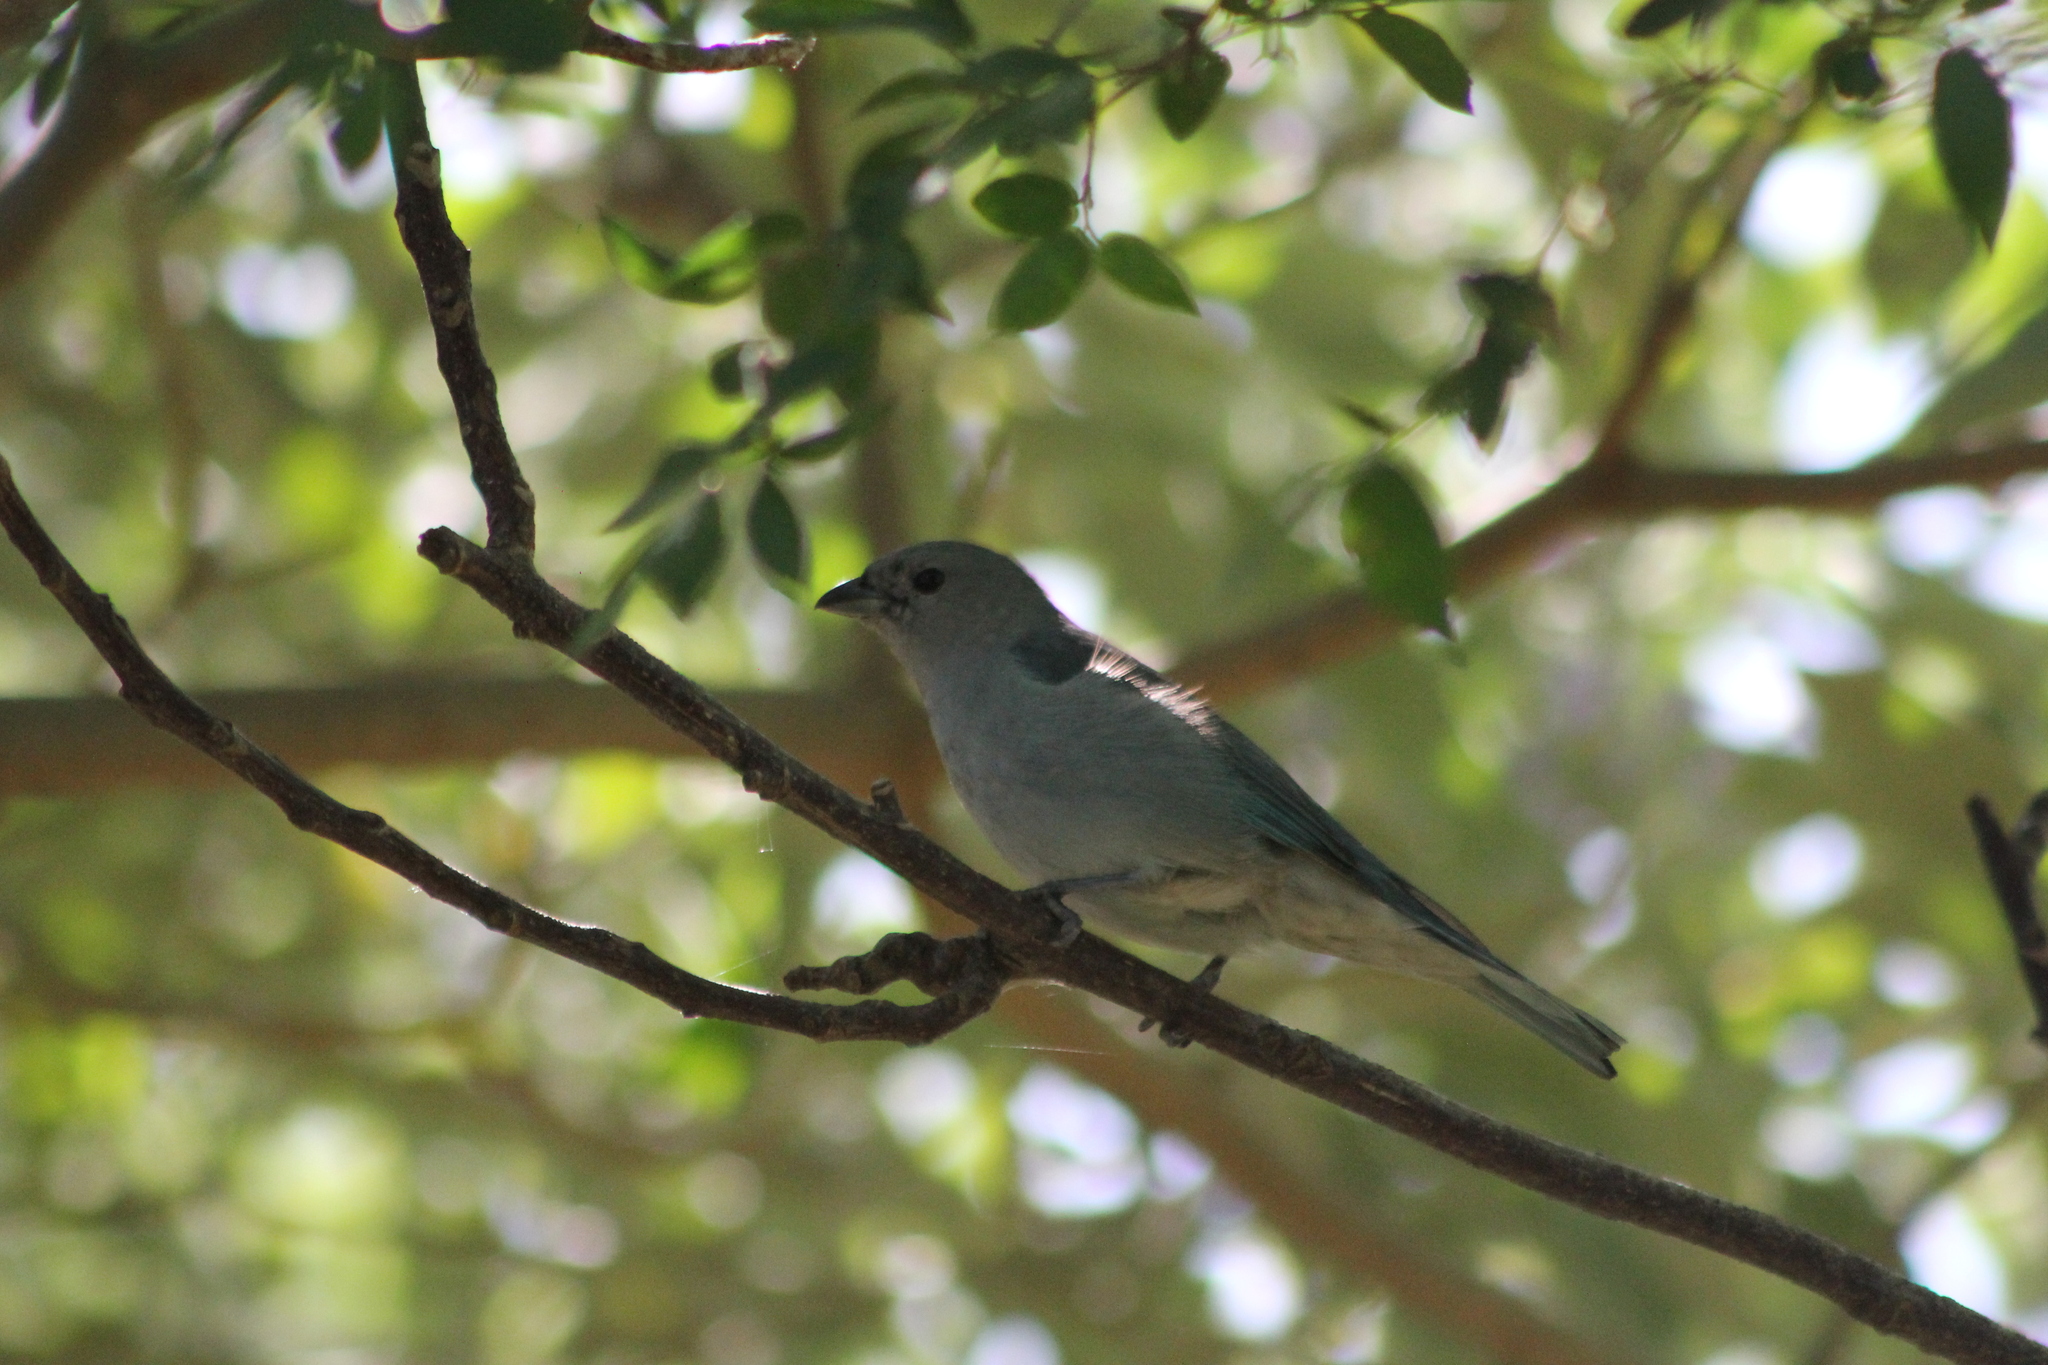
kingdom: Animalia
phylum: Chordata
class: Aves
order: Passeriformes
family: Thraupidae
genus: Thraupis
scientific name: Thraupis sayaca
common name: Sayaca tanager
